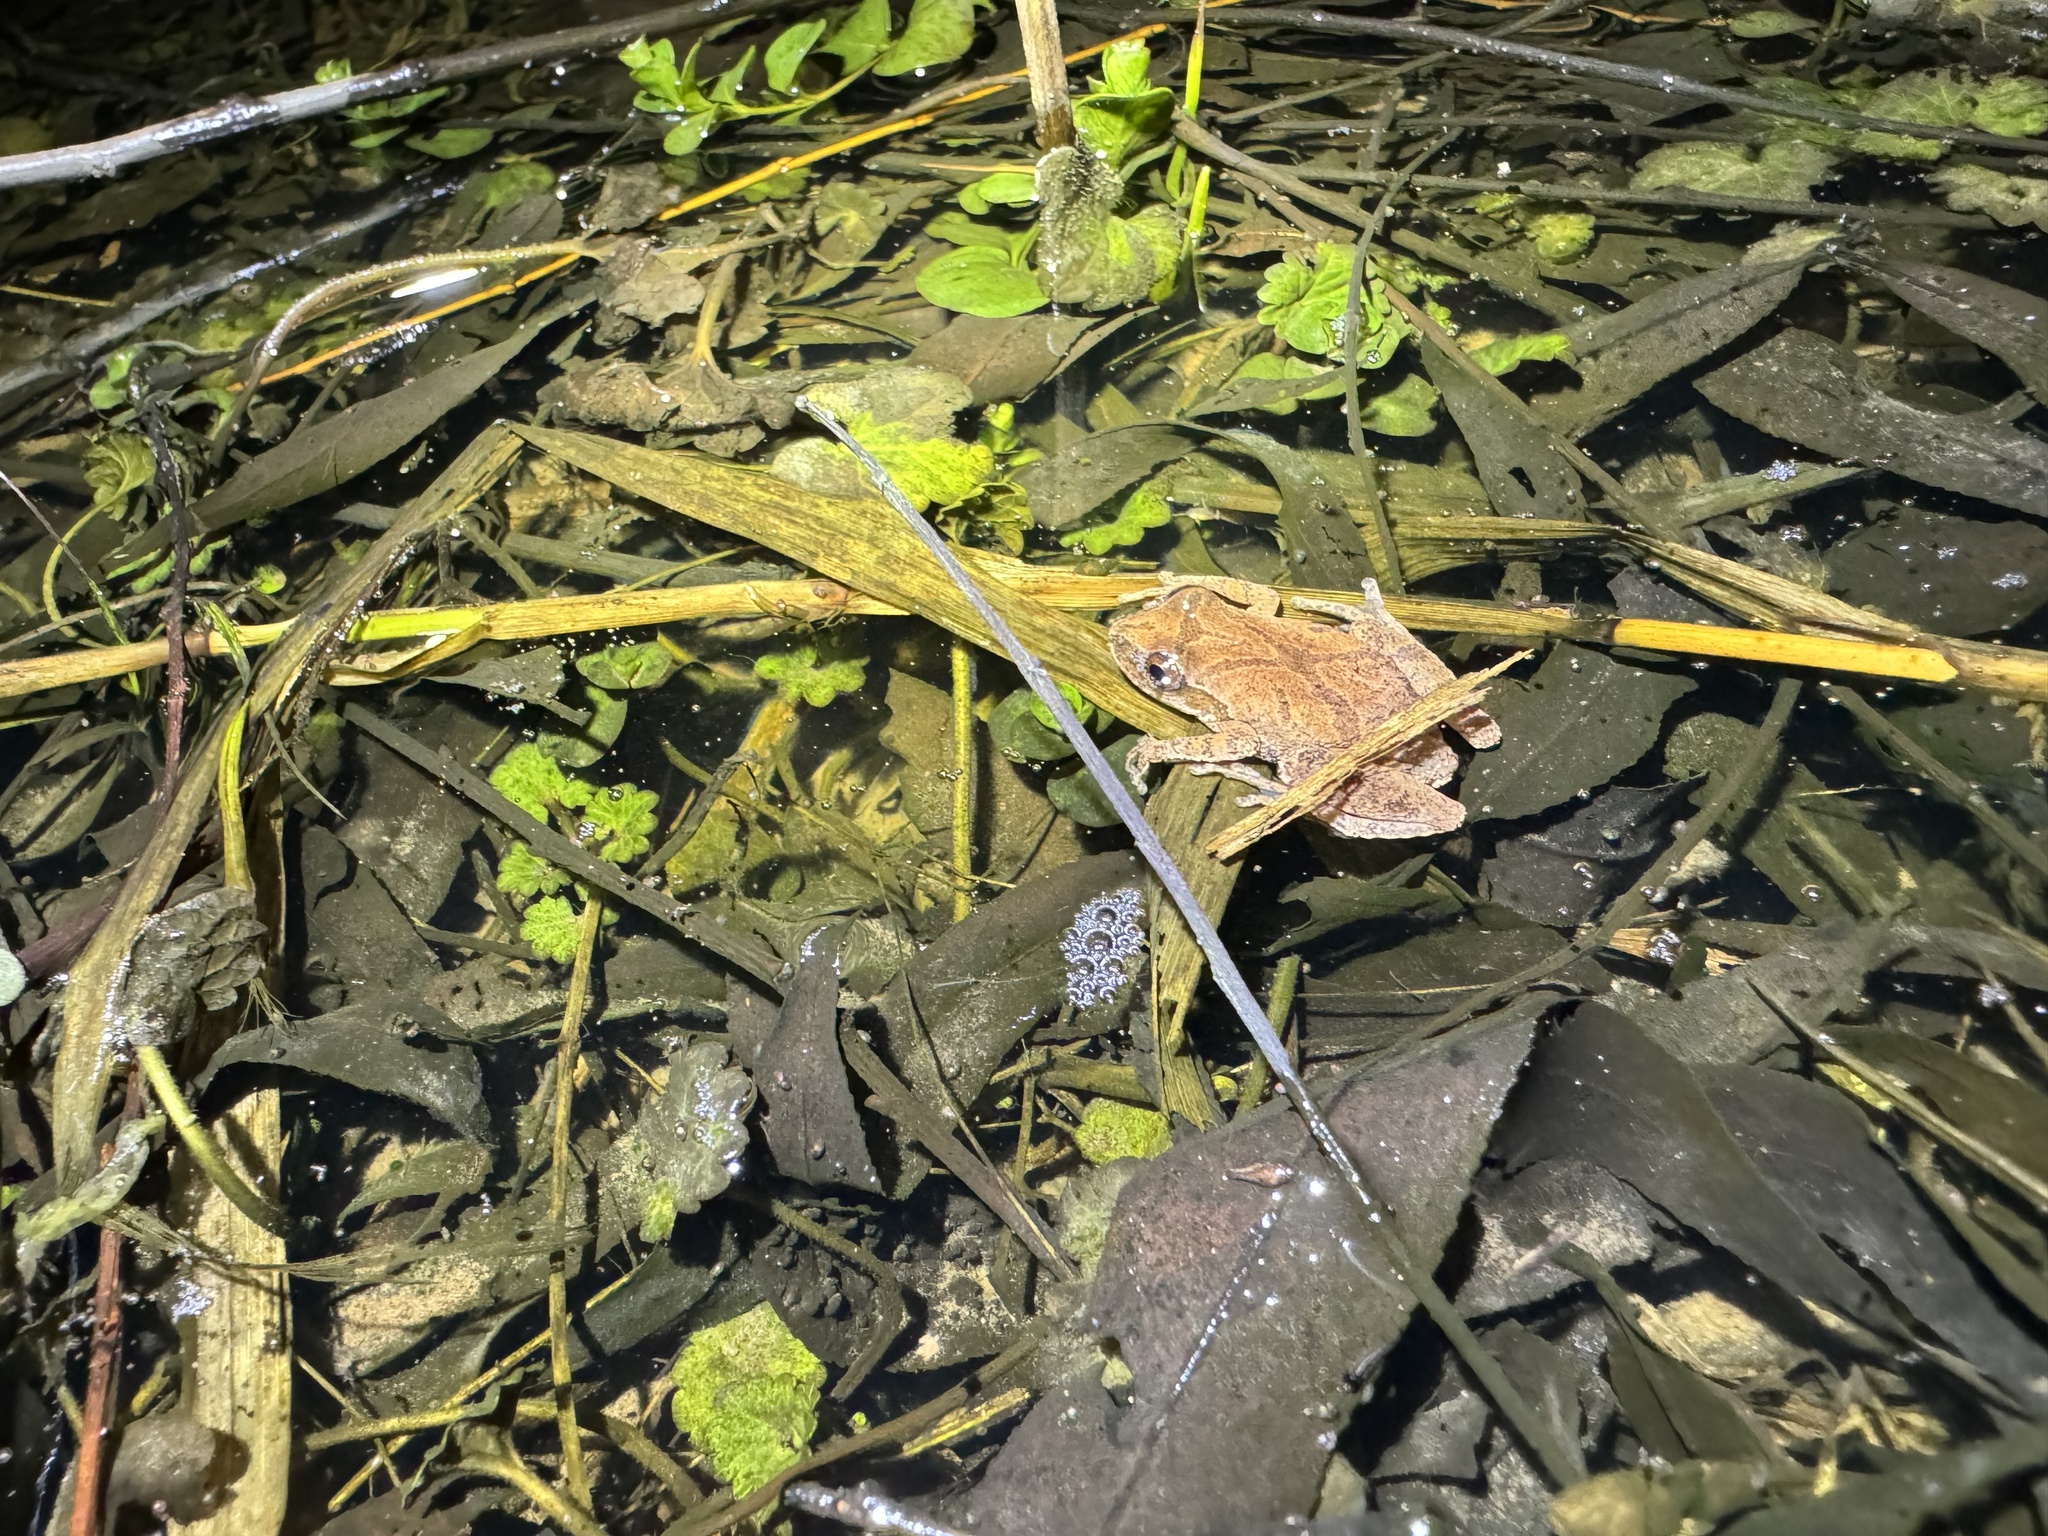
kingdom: Animalia
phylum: Chordata
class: Amphibia
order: Anura
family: Hylidae
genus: Pseudacris
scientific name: Pseudacris crucifer
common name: Spring peeper
